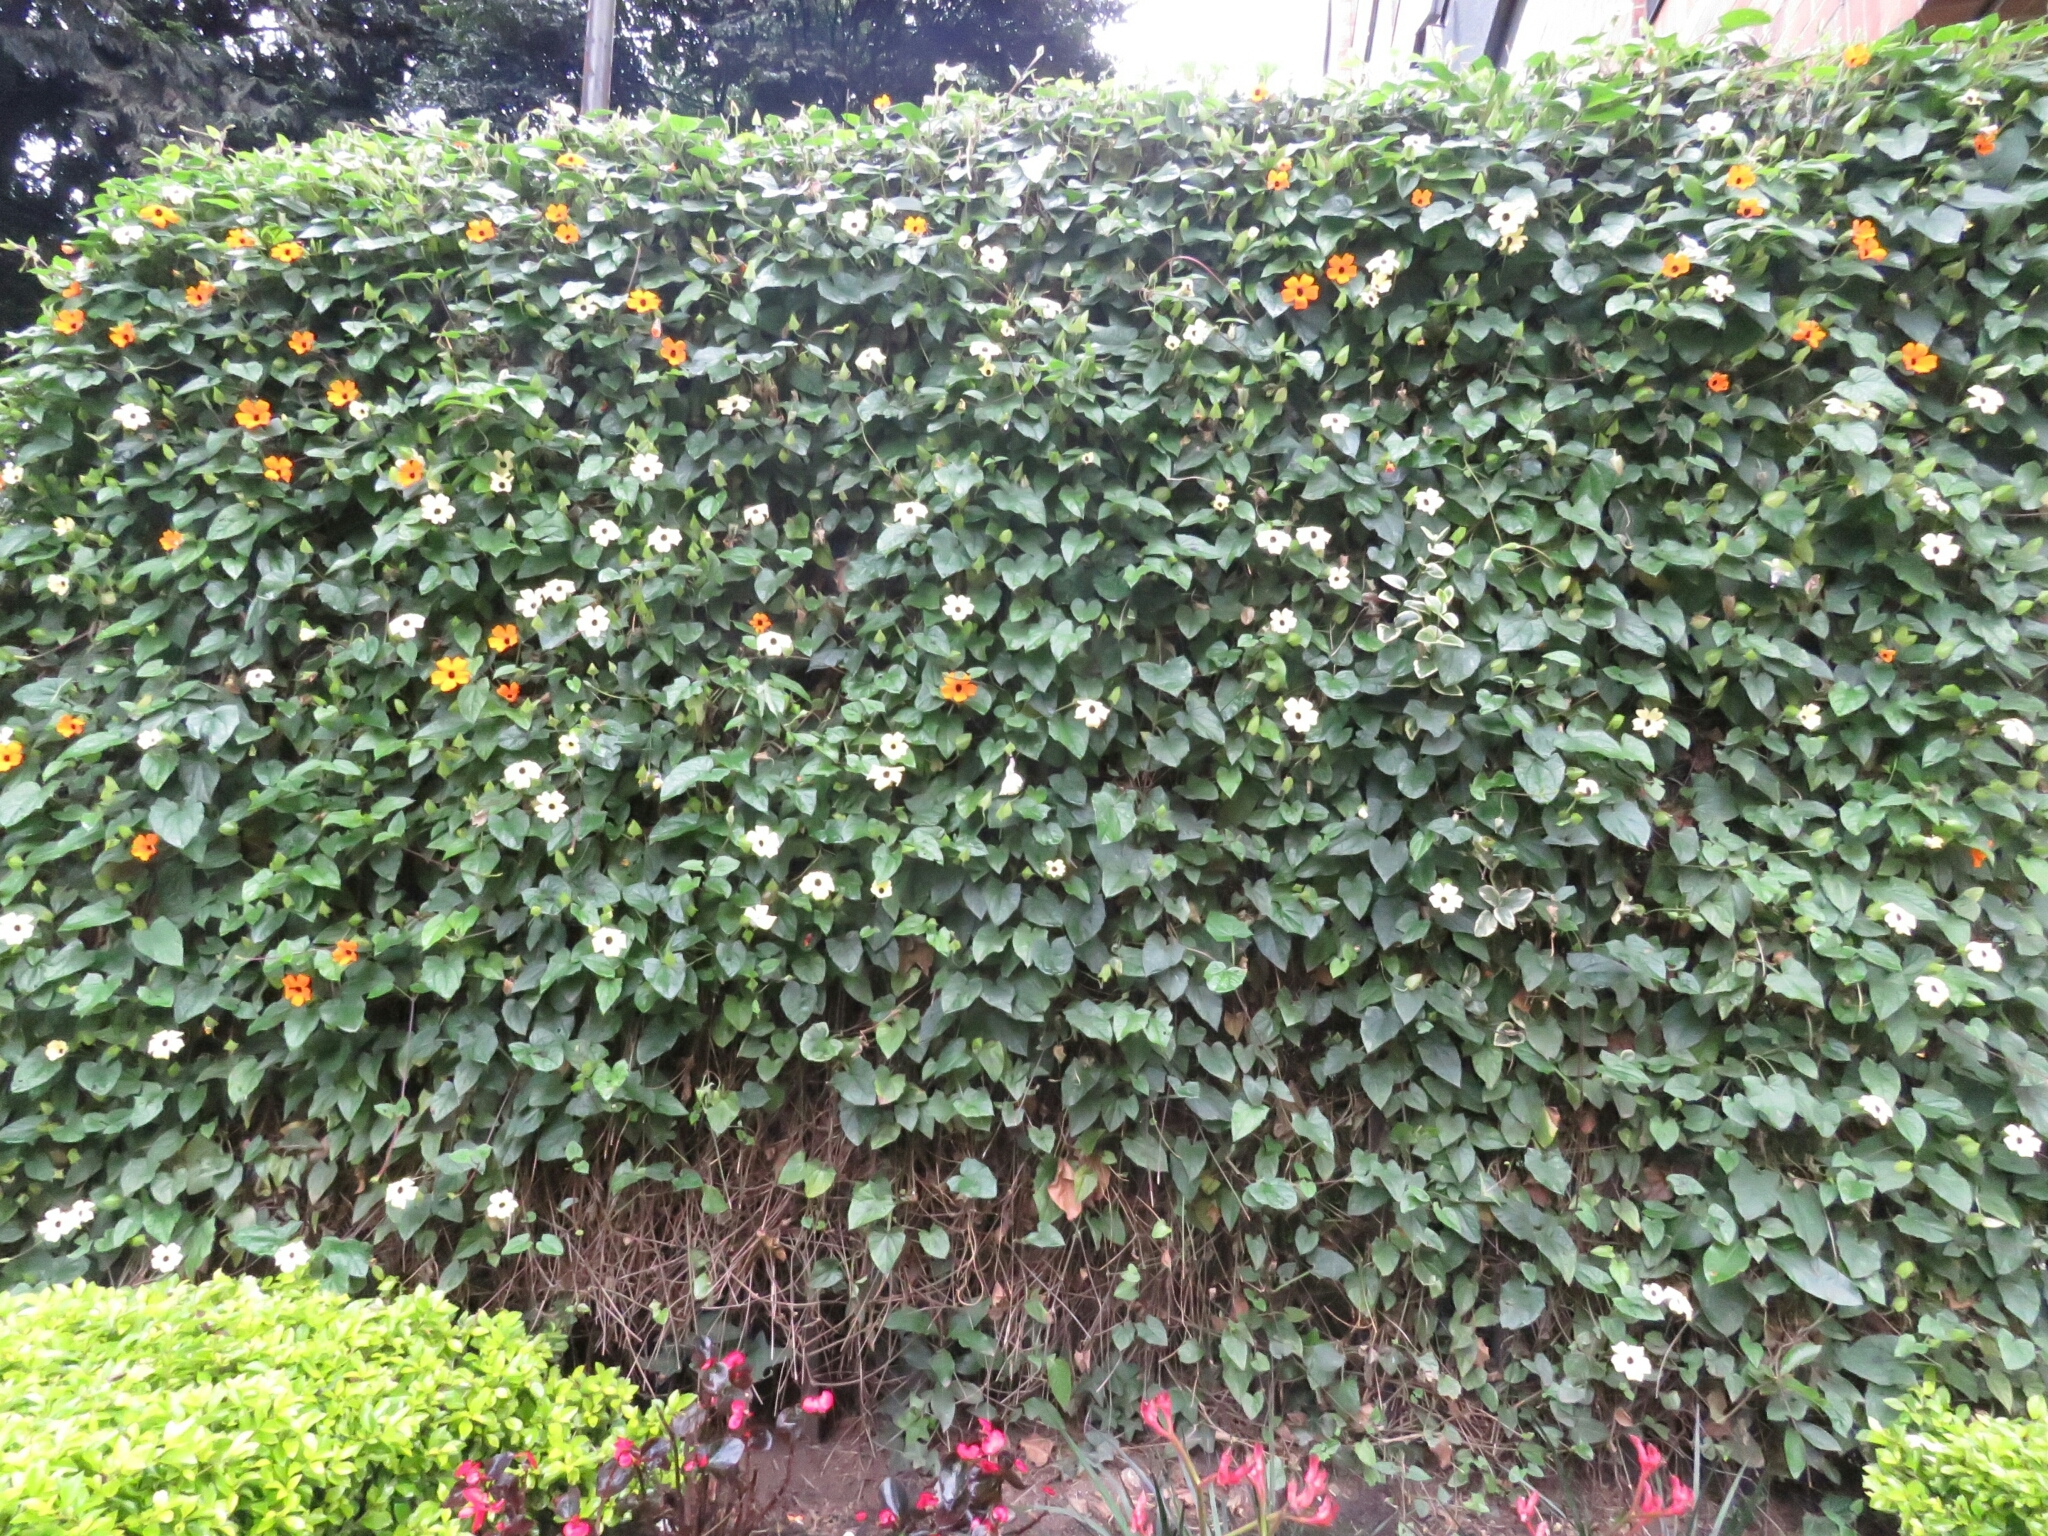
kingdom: Plantae
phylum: Tracheophyta
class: Magnoliopsida
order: Lamiales
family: Acanthaceae
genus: Thunbergia
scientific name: Thunbergia alata
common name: Blackeyed susan vine
